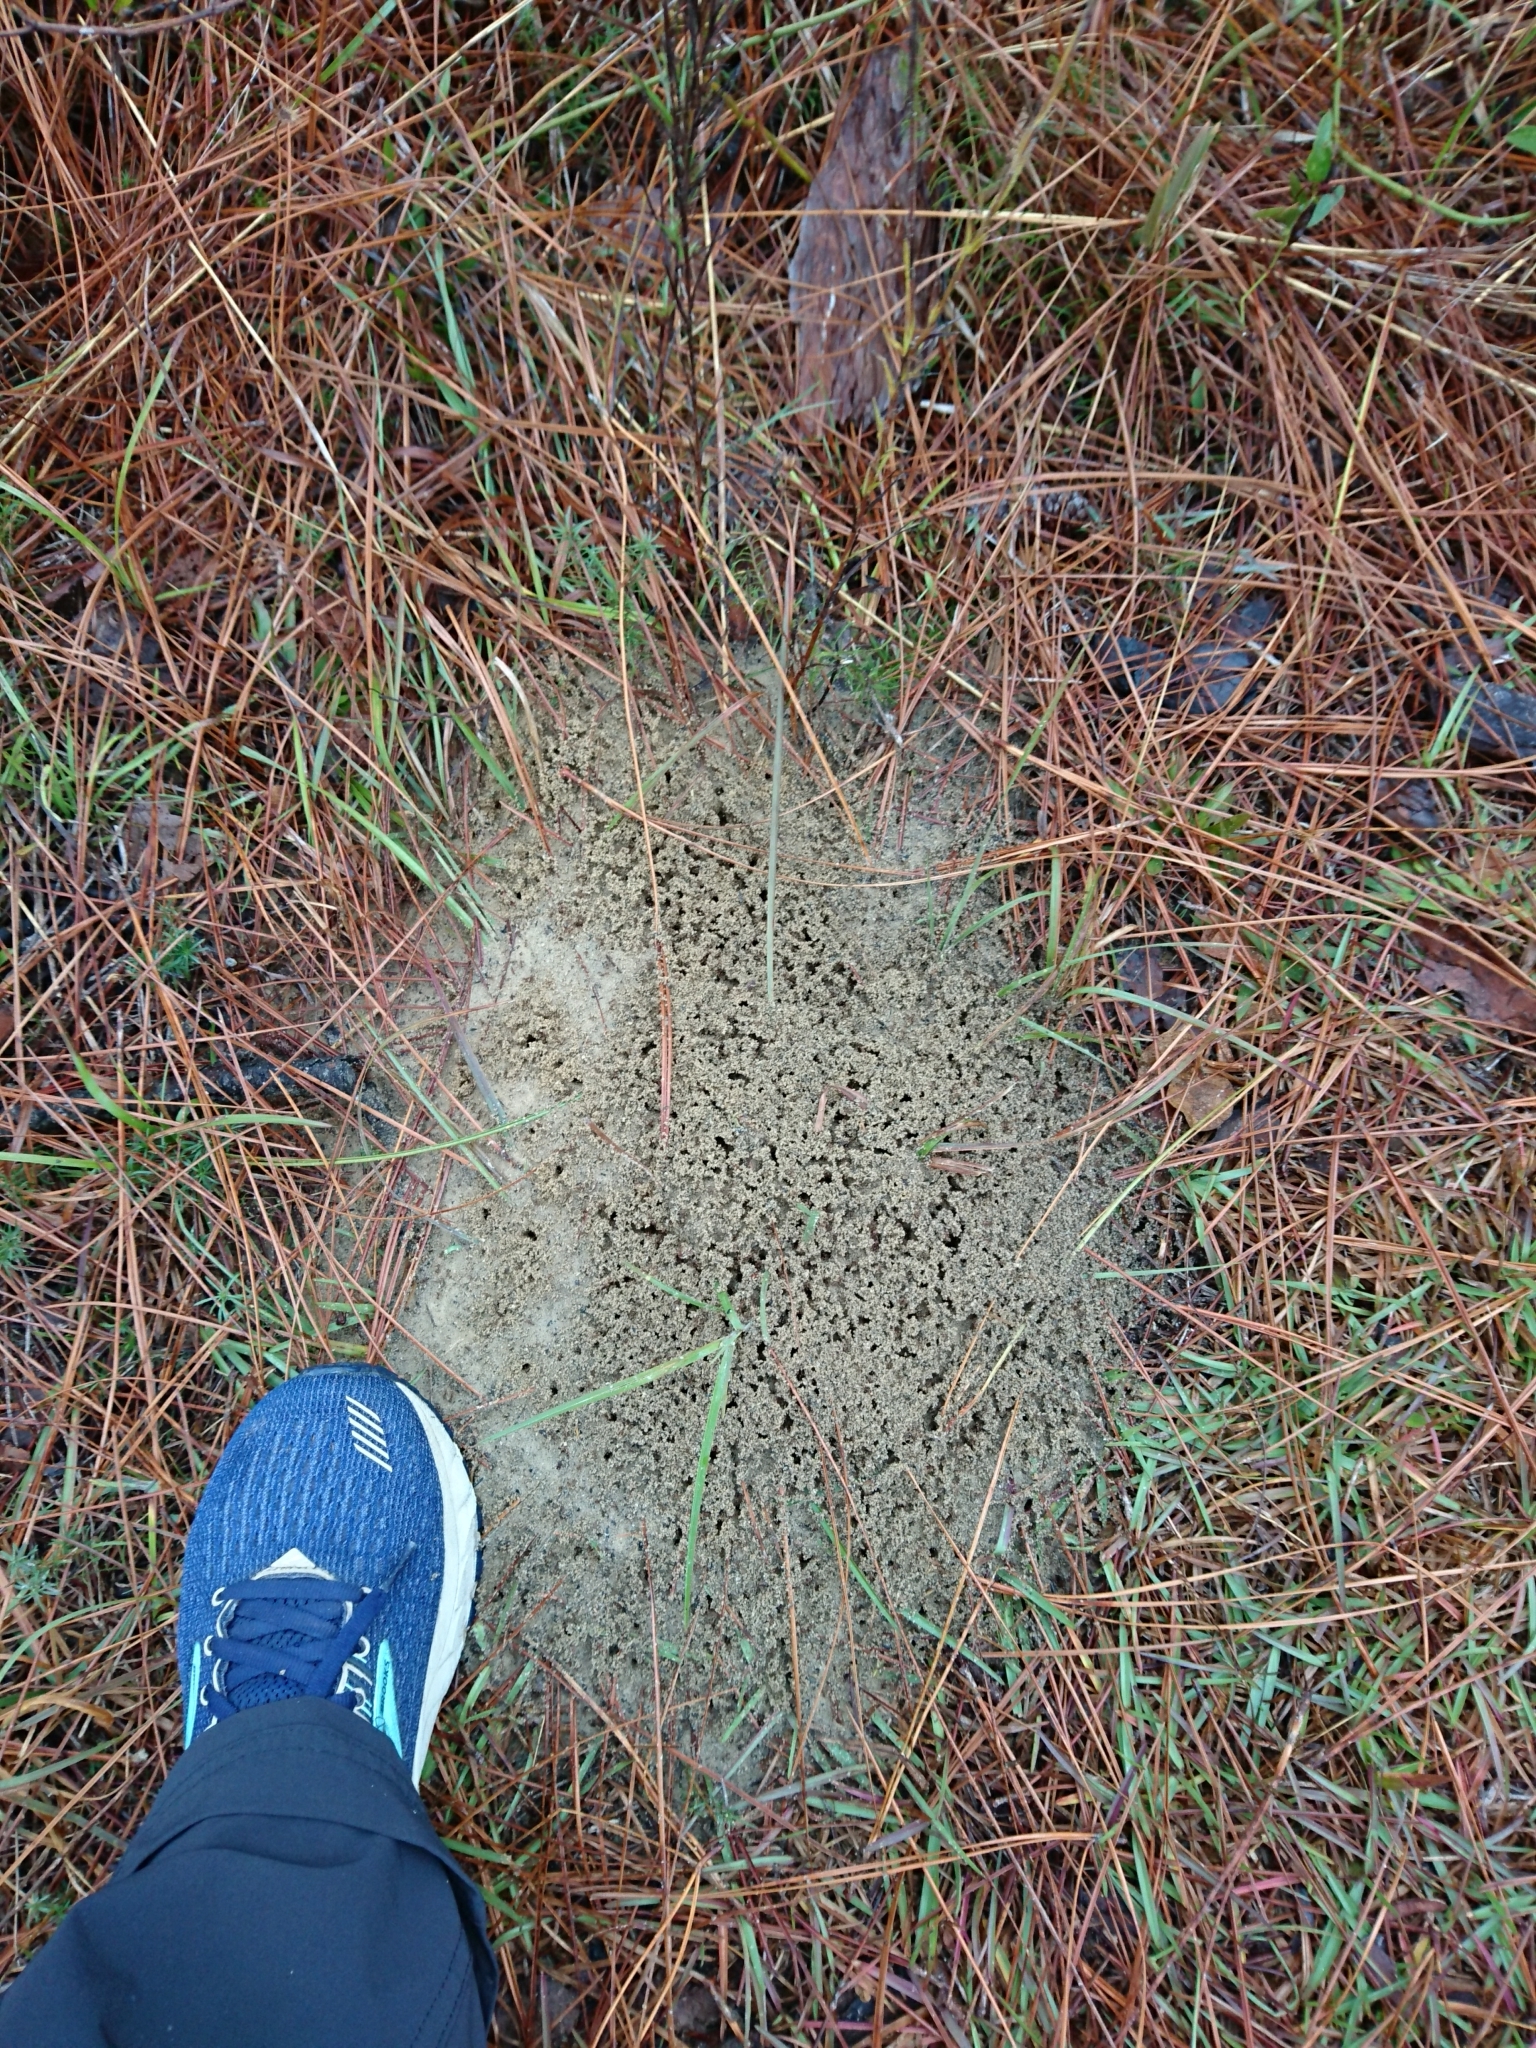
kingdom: Animalia
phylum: Arthropoda
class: Insecta
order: Hymenoptera
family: Formicidae
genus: Solenopsis
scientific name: Solenopsis invicta
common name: Red imported fire ant
